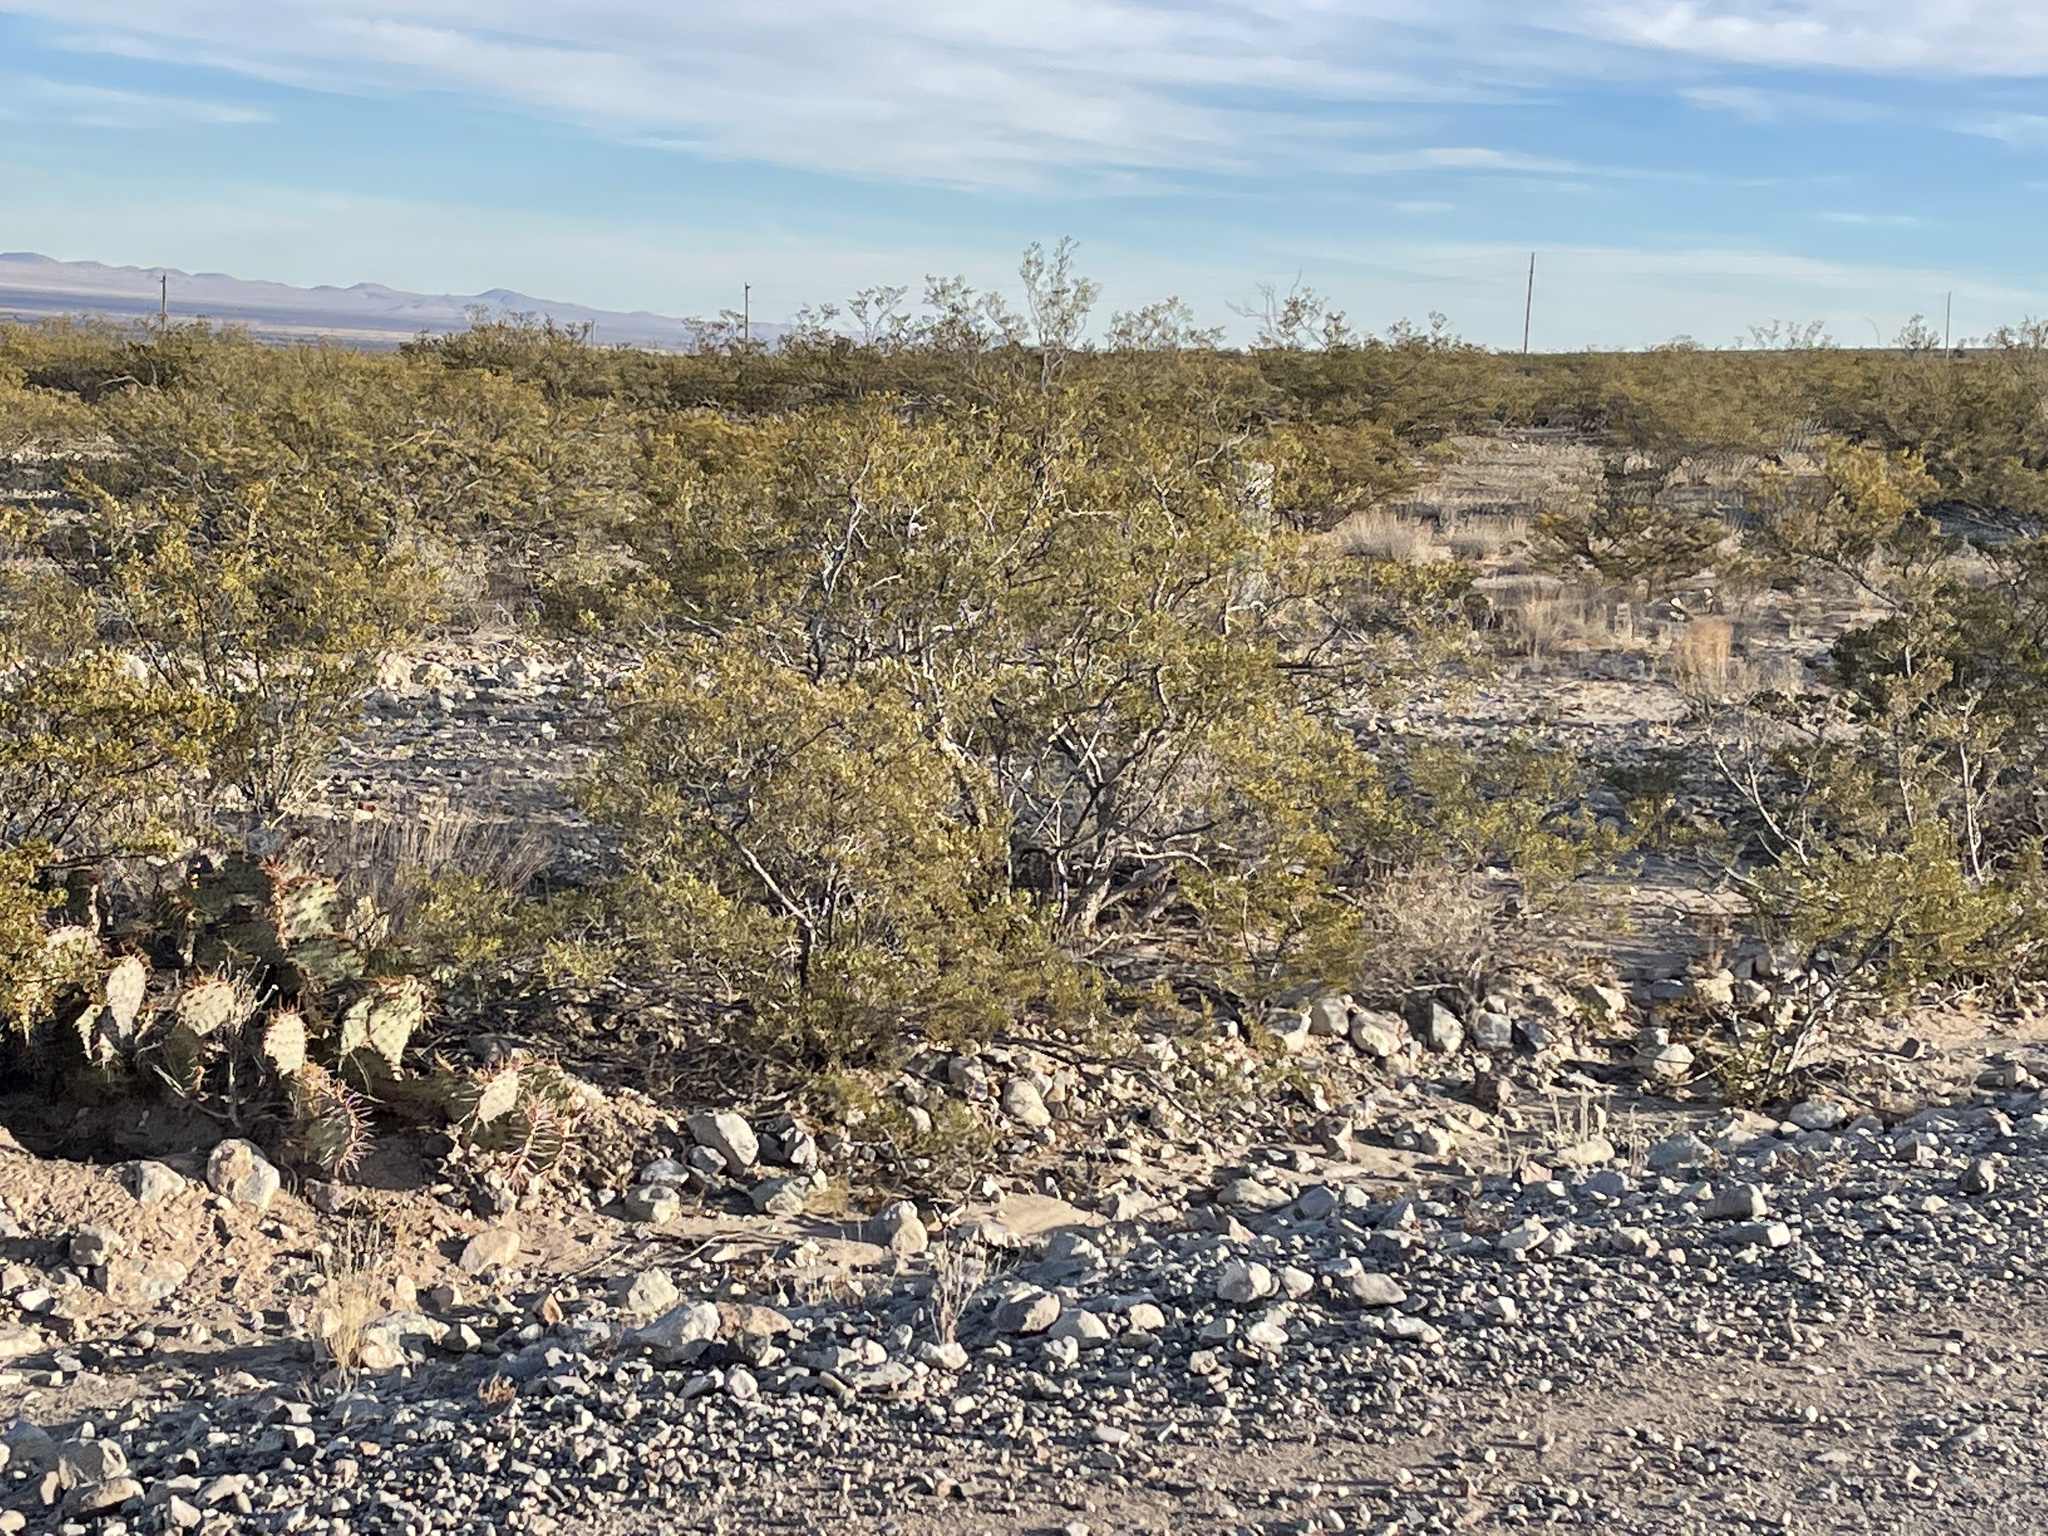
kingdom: Plantae
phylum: Tracheophyta
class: Magnoliopsida
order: Zygophyllales
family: Zygophyllaceae
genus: Larrea
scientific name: Larrea tridentata
